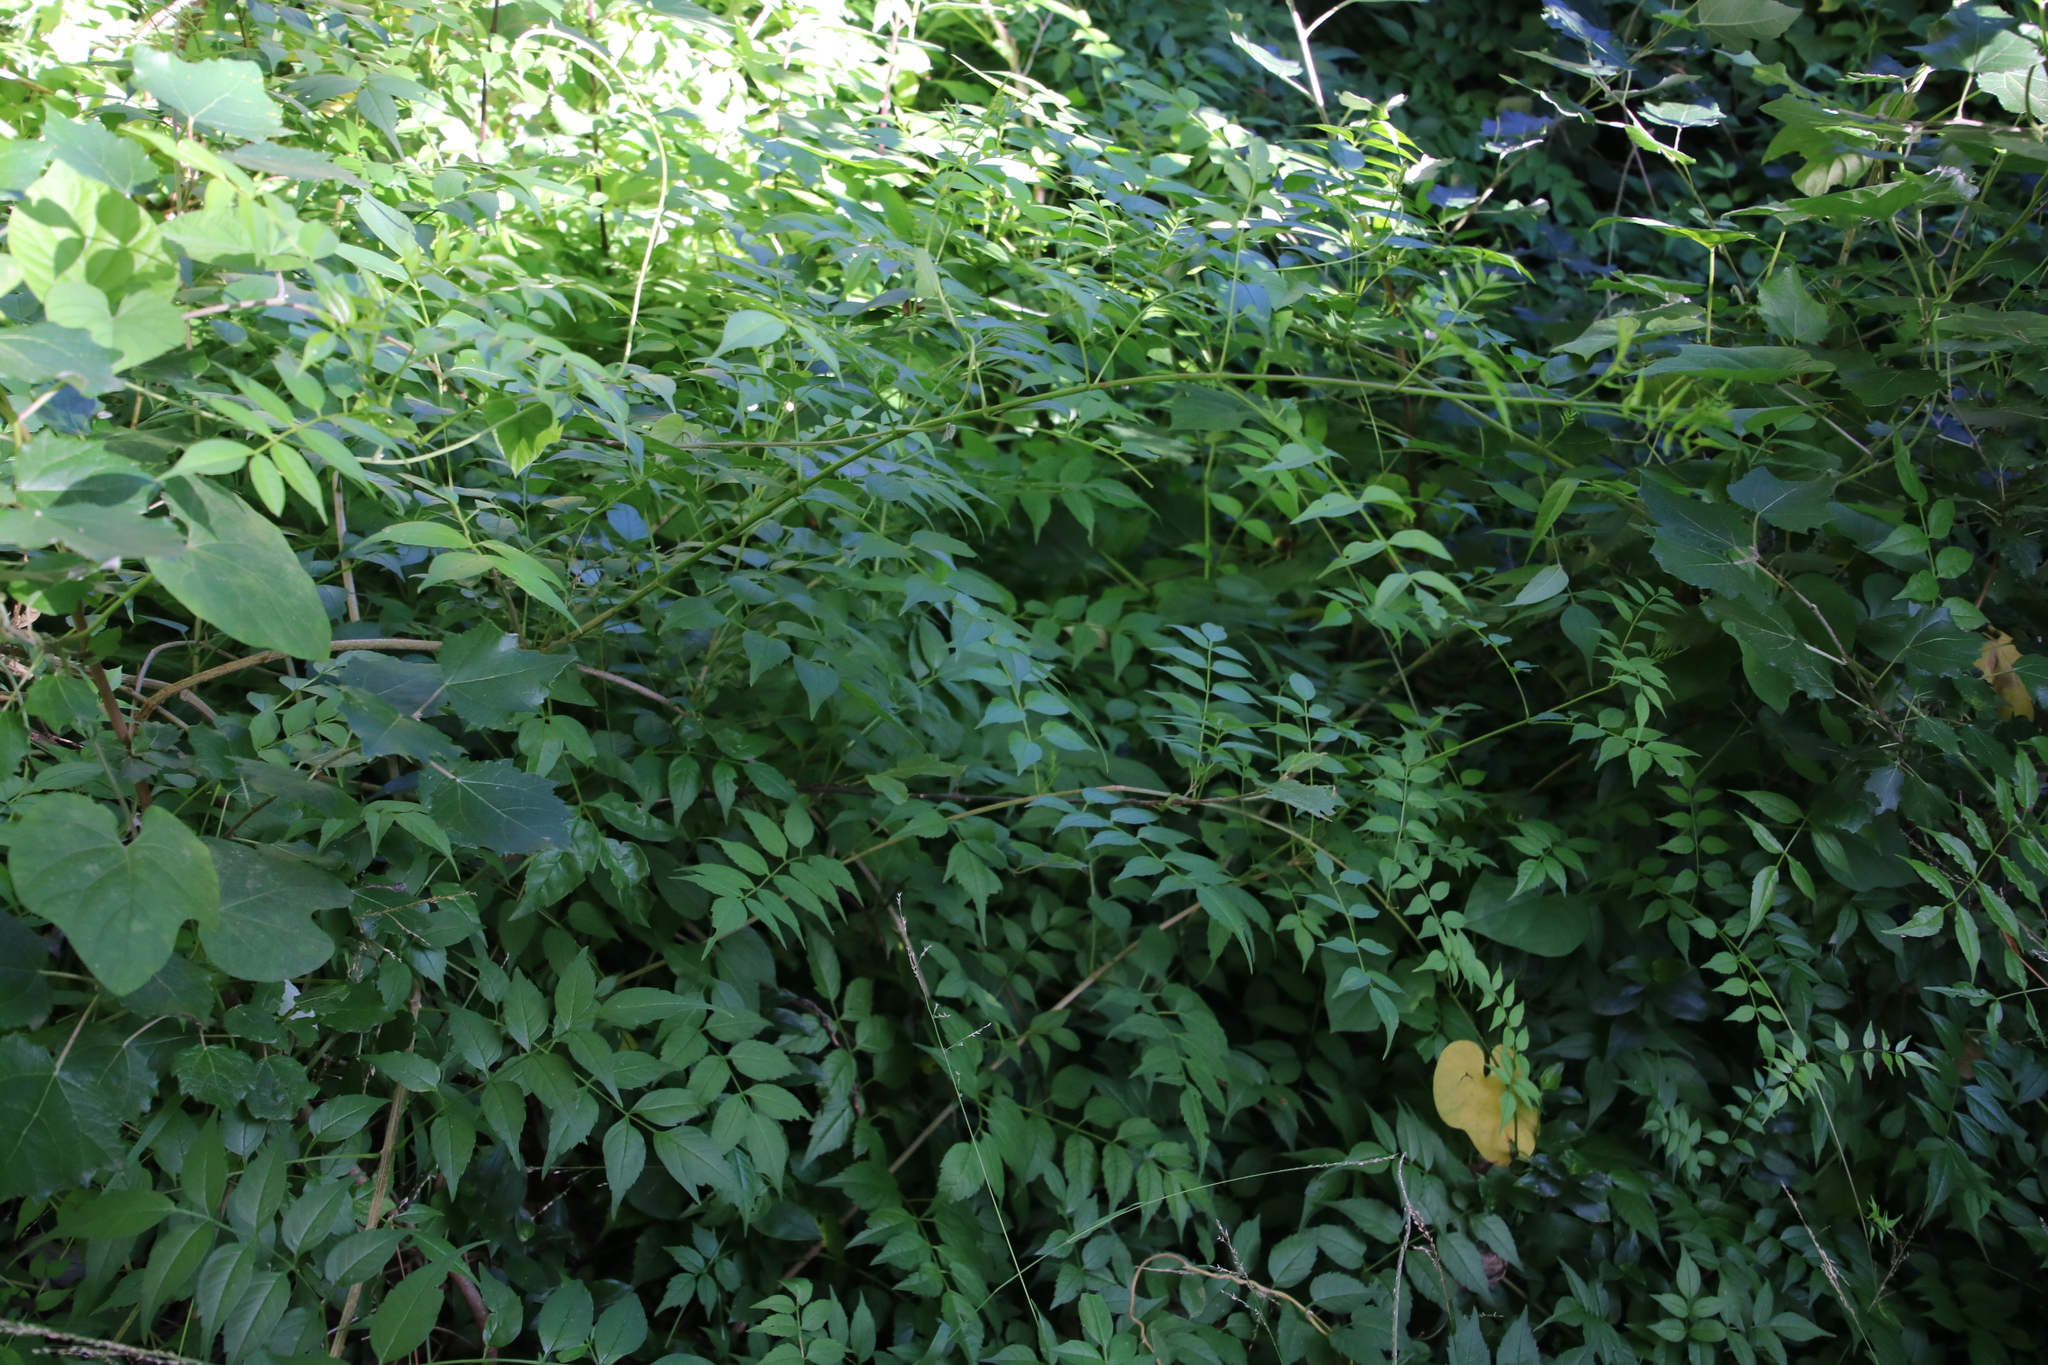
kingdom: Plantae
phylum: Tracheophyta
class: Magnoliopsida
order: Lamiales
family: Bignoniaceae
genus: Podranea
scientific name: Podranea ricasoliana
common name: Zimbabwe creeper
